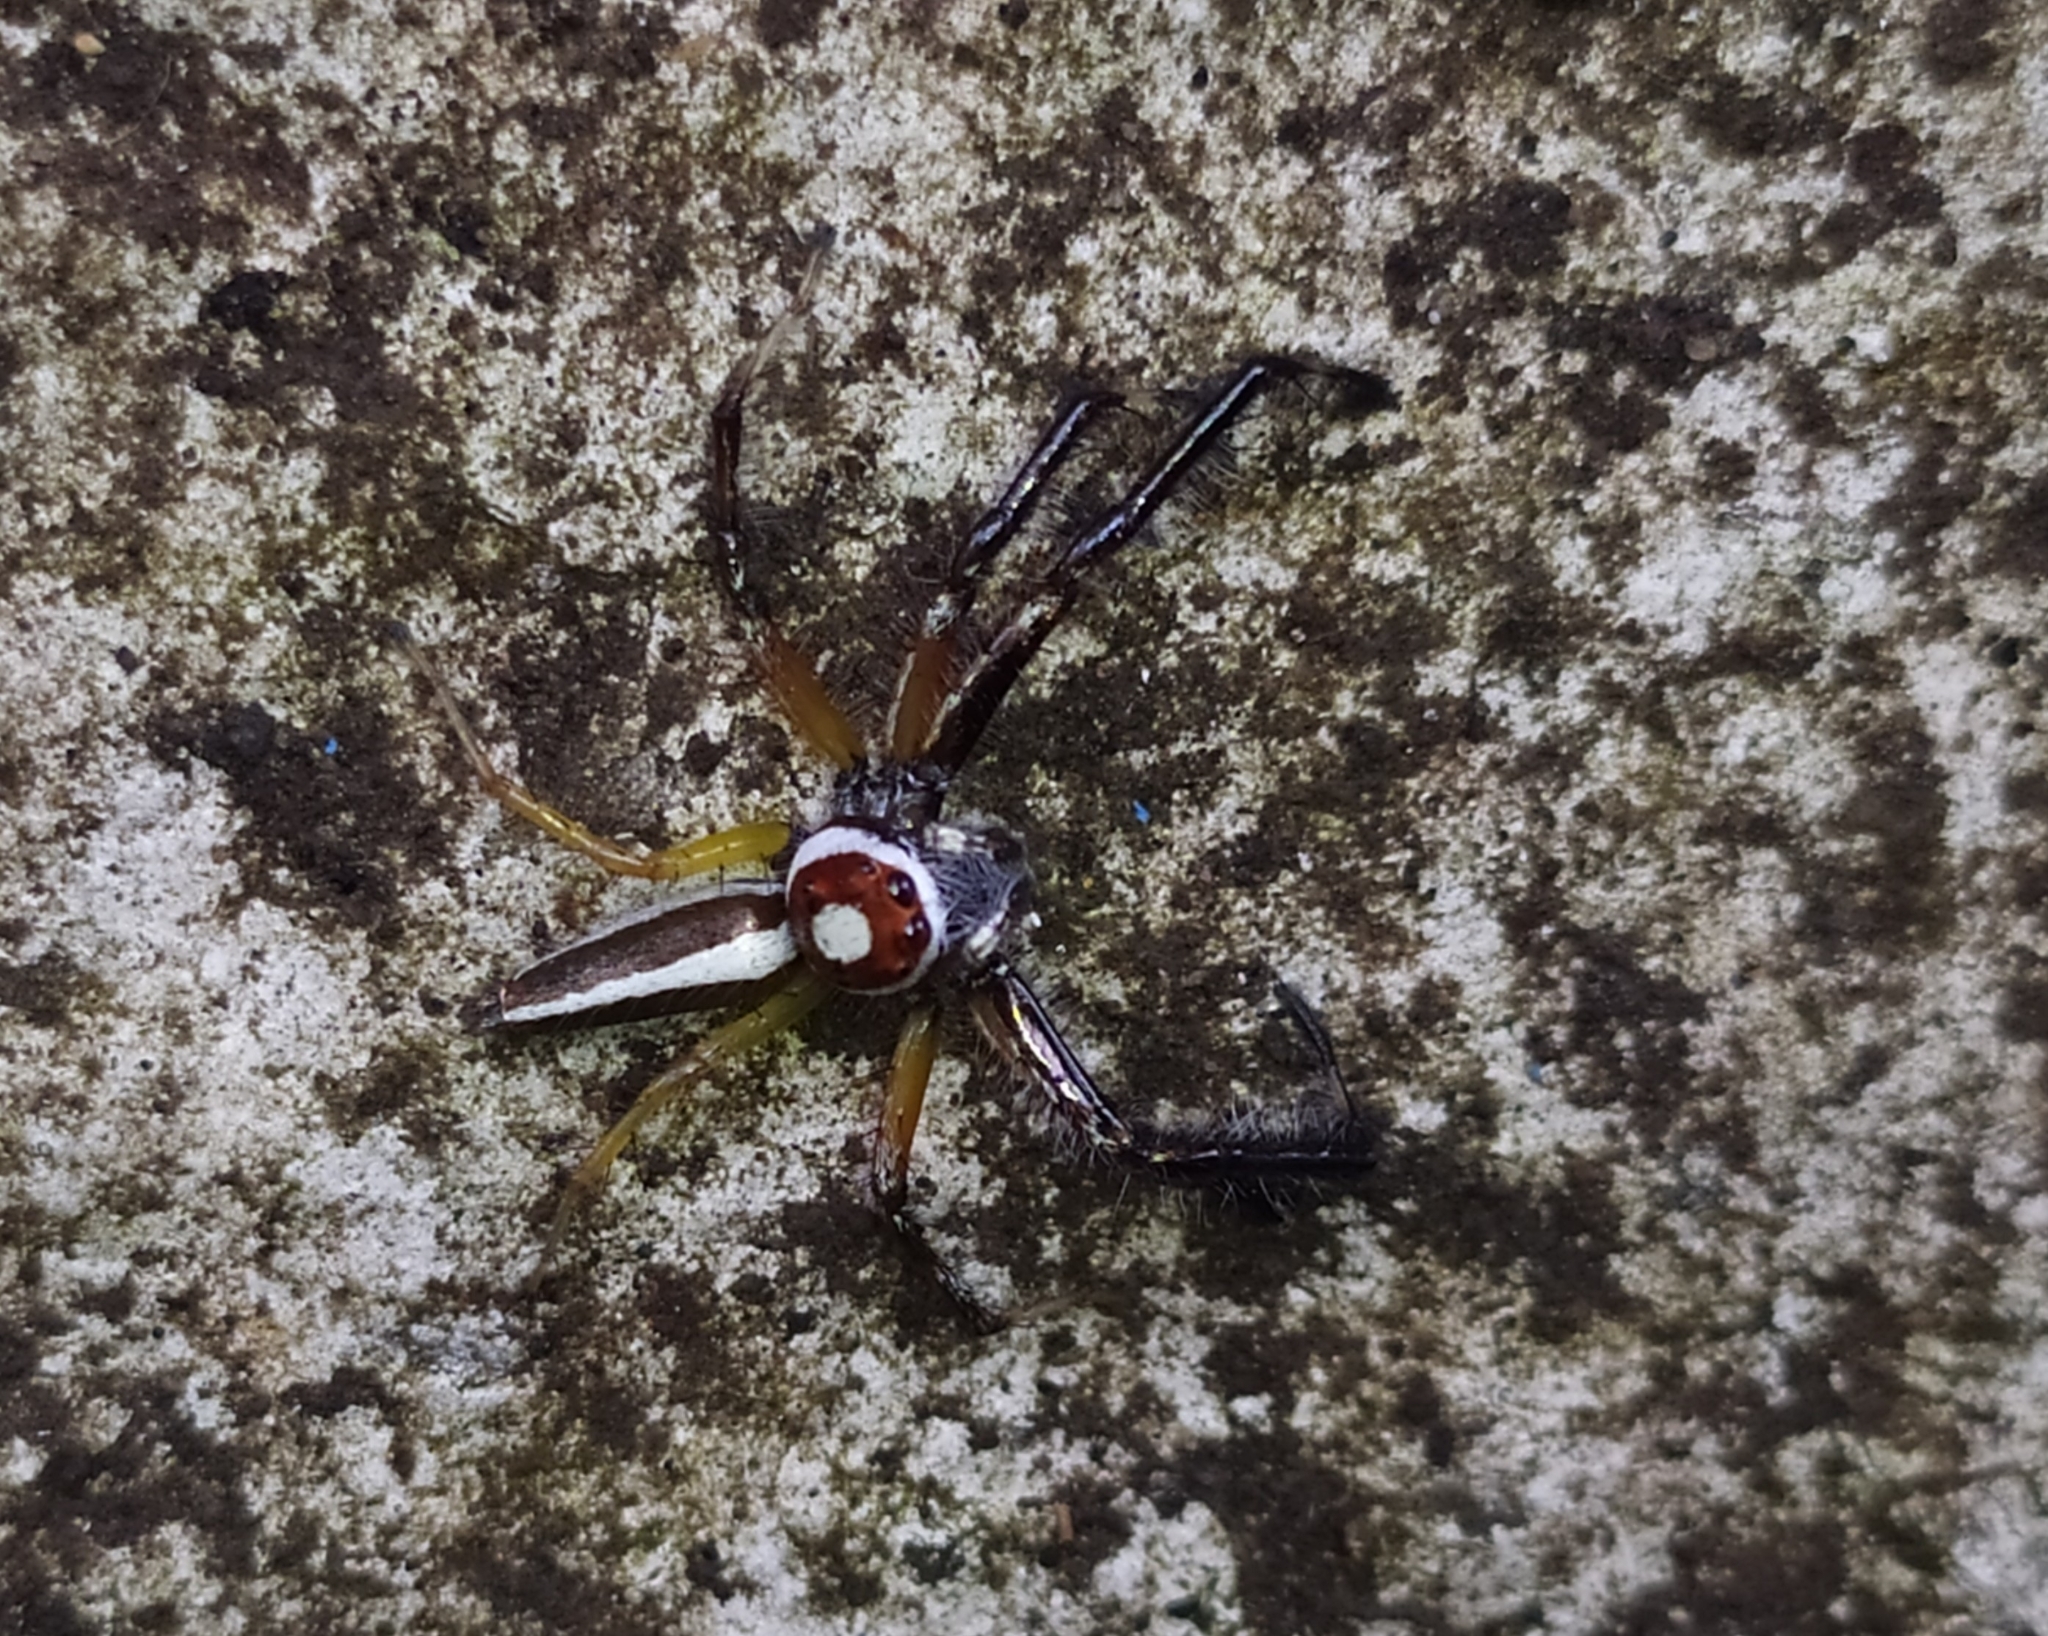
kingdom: Animalia
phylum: Arthropoda
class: Arachnida
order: Araneae
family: Salticidae
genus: Telamonia
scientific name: Telamonia dimidiata
